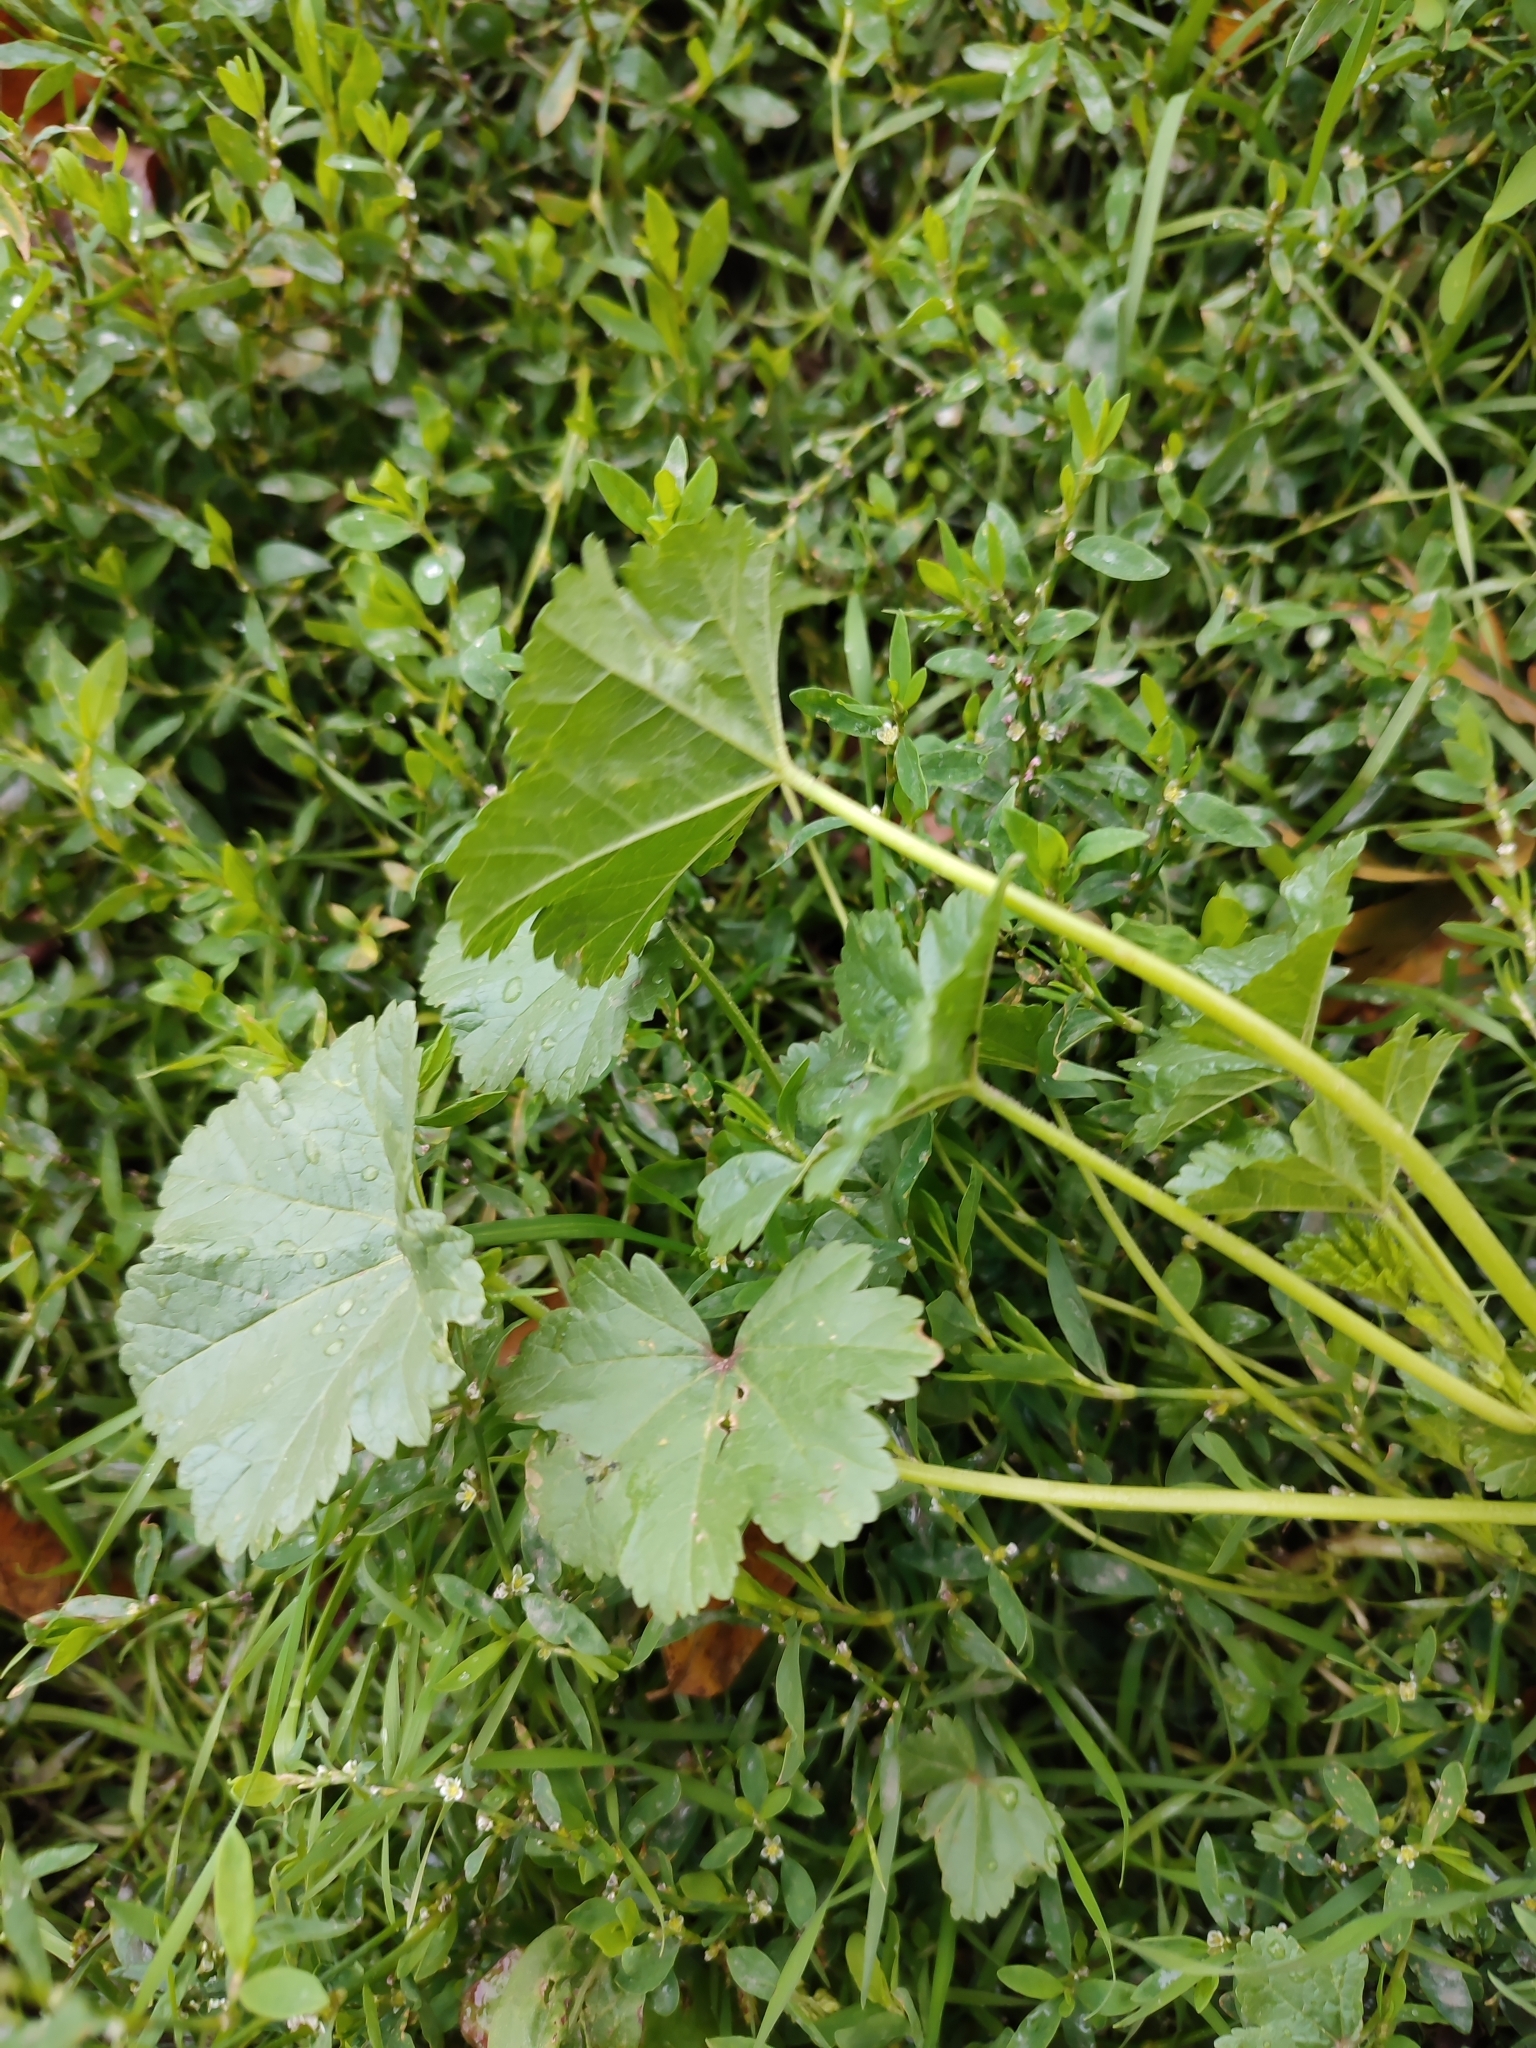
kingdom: Plantae
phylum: Tracheophyta
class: Magnoliopsida
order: Malvales
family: Malvaceae
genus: Malva
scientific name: Malva pusilla
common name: Small mallow
